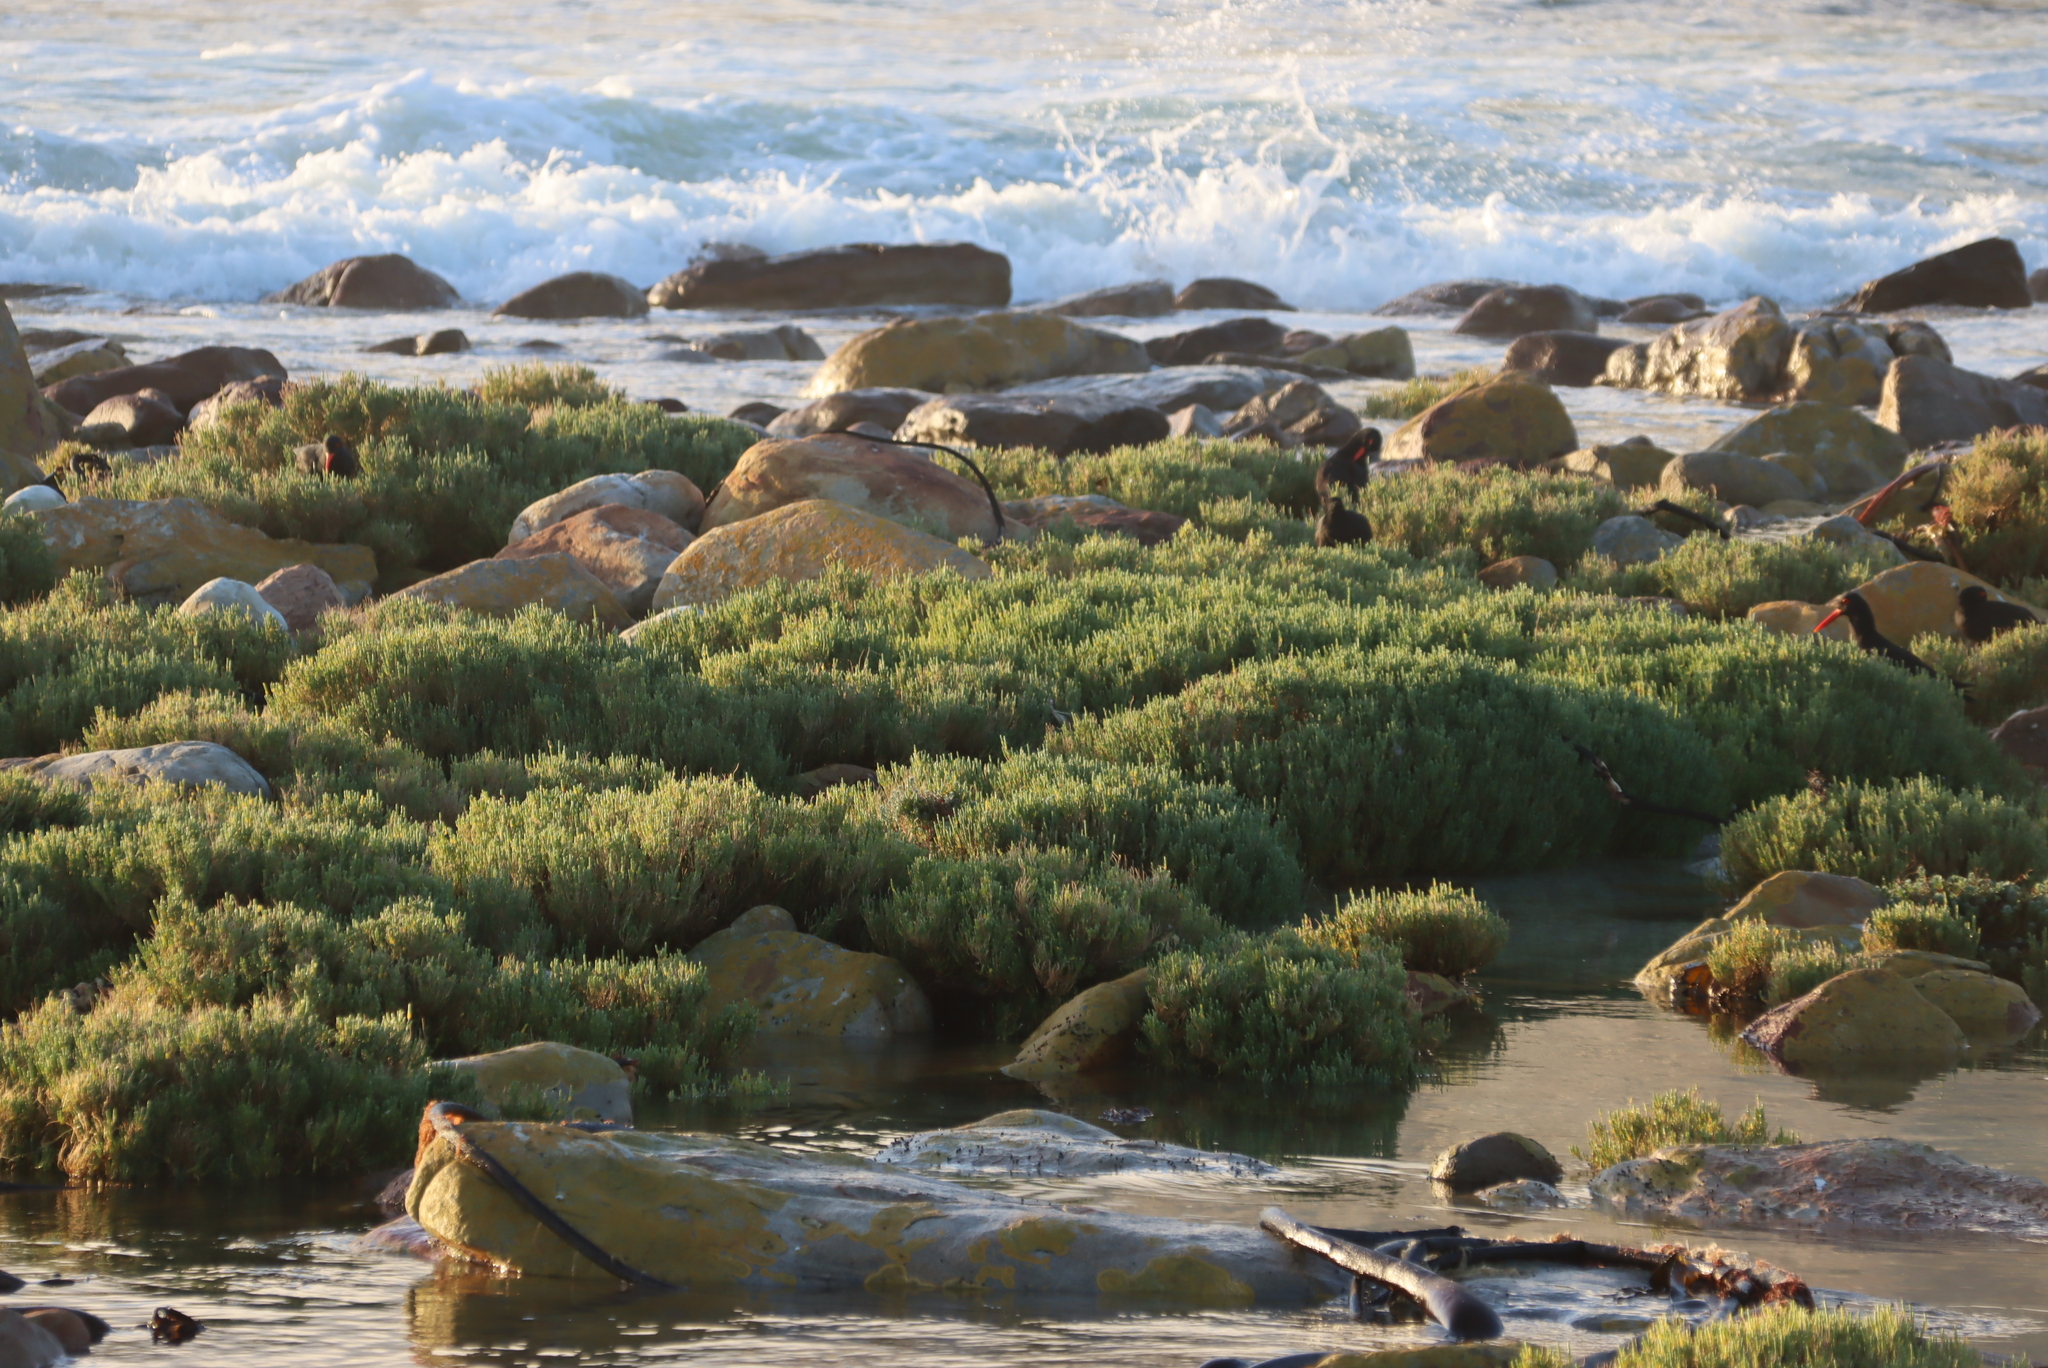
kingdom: Plantae
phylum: Tracheophyta
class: Magnoliopsida
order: Caryophyllales
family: Amaranthaceae
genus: Salicornia
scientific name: Salicornia littorea
